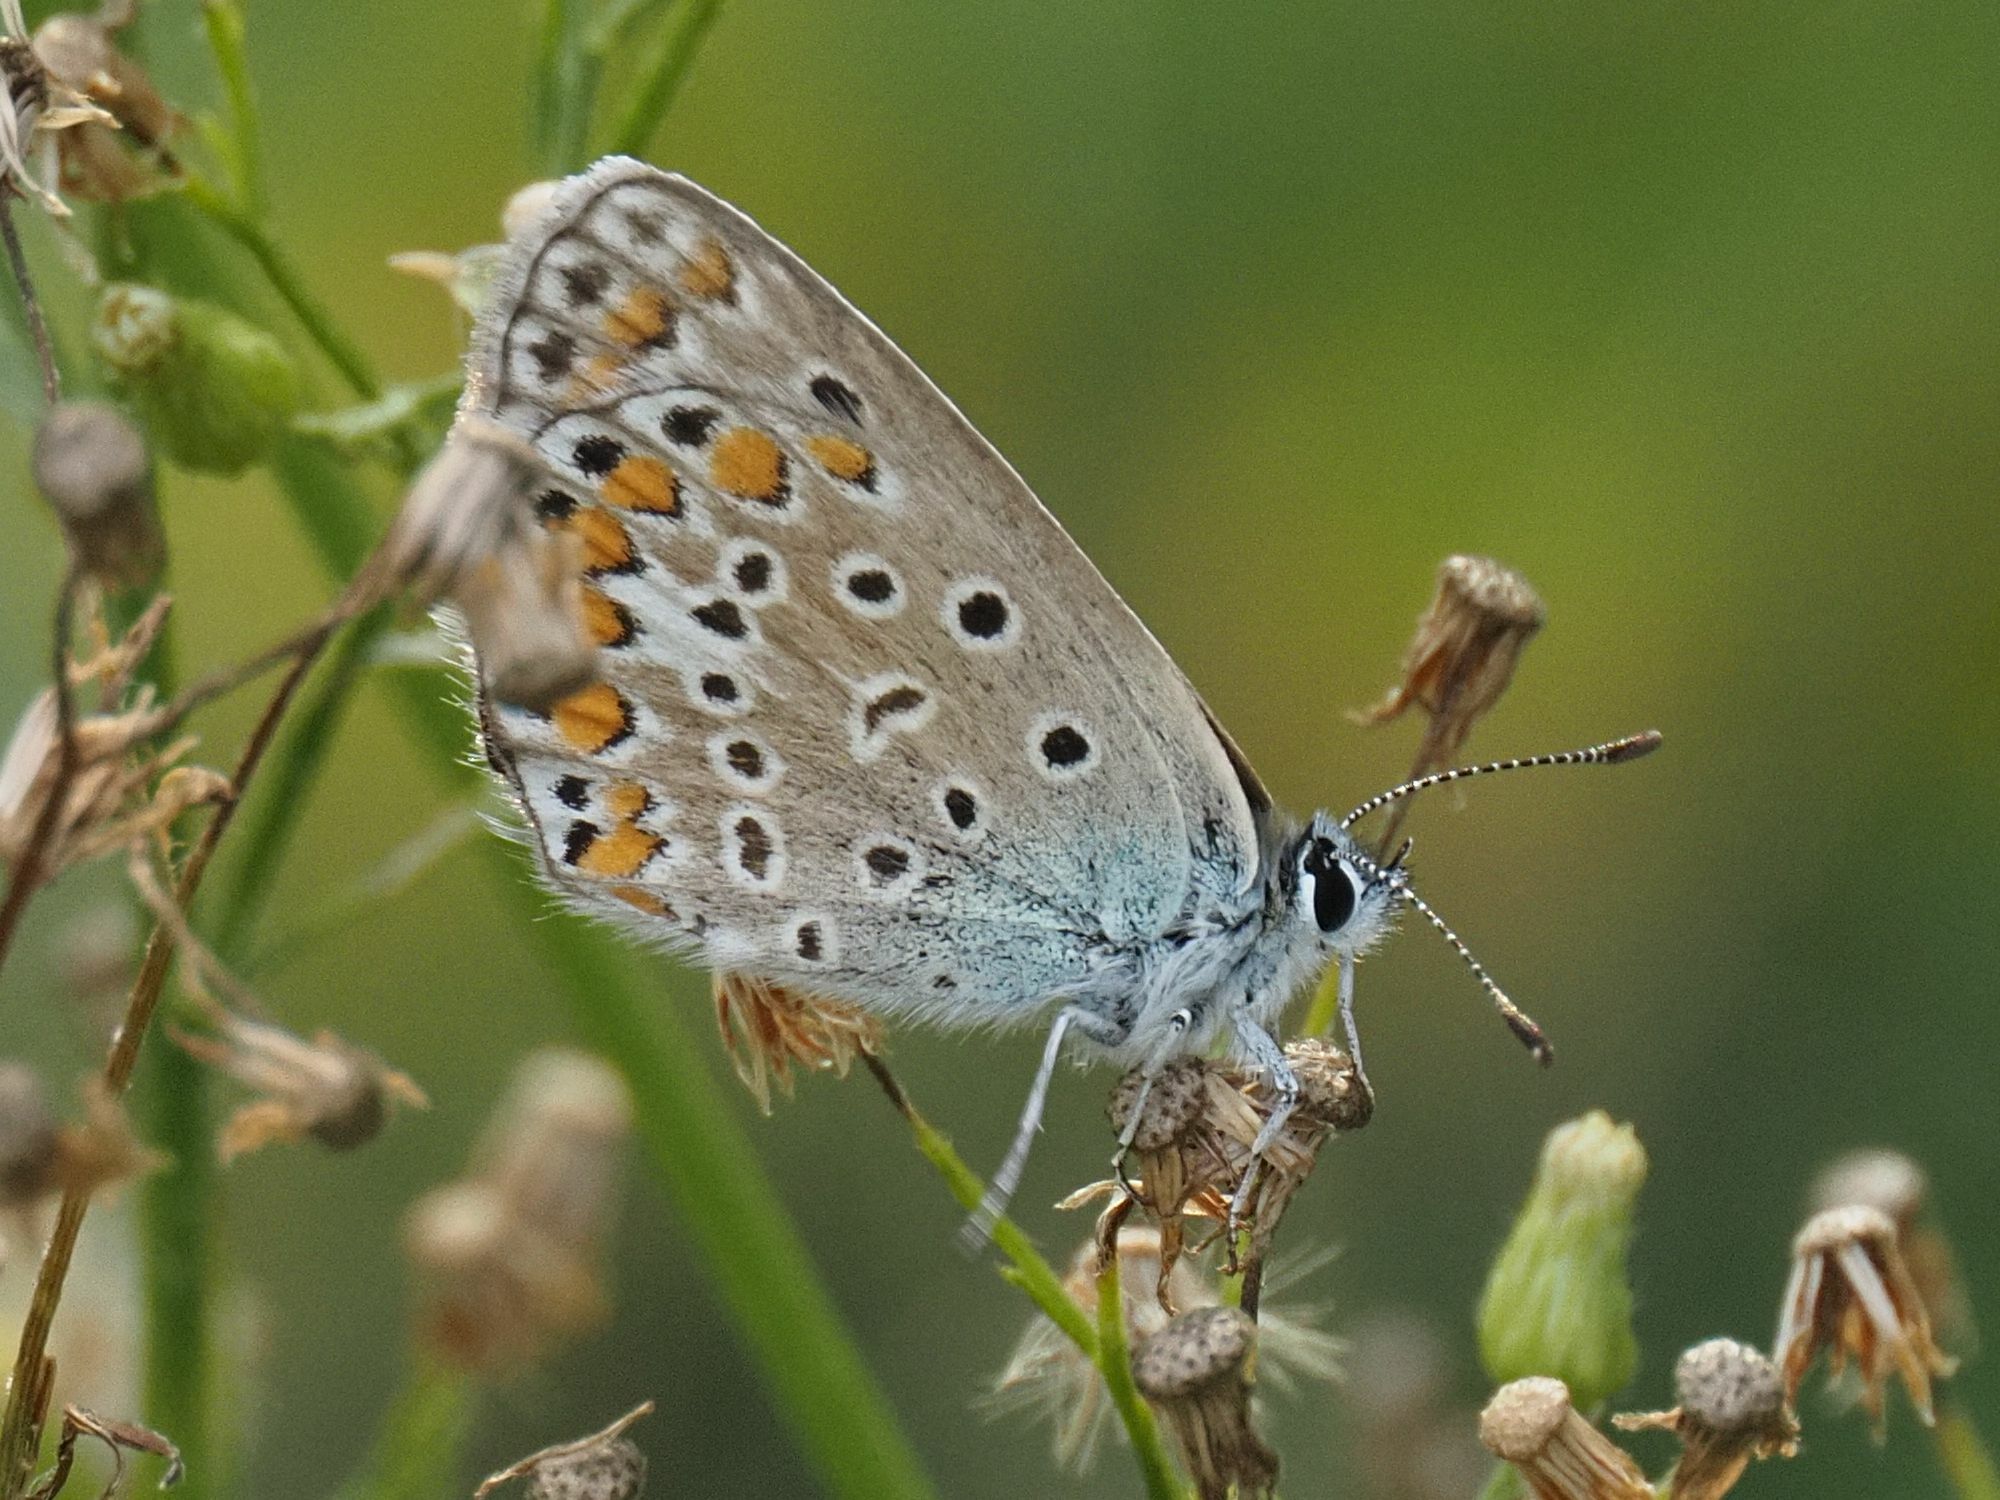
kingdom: Animalia
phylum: Arthropoda
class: Insecta
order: Lepidoptera
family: Lycaenidae
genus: Polyommatus
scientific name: Polyommatus icarus
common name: Common blue
